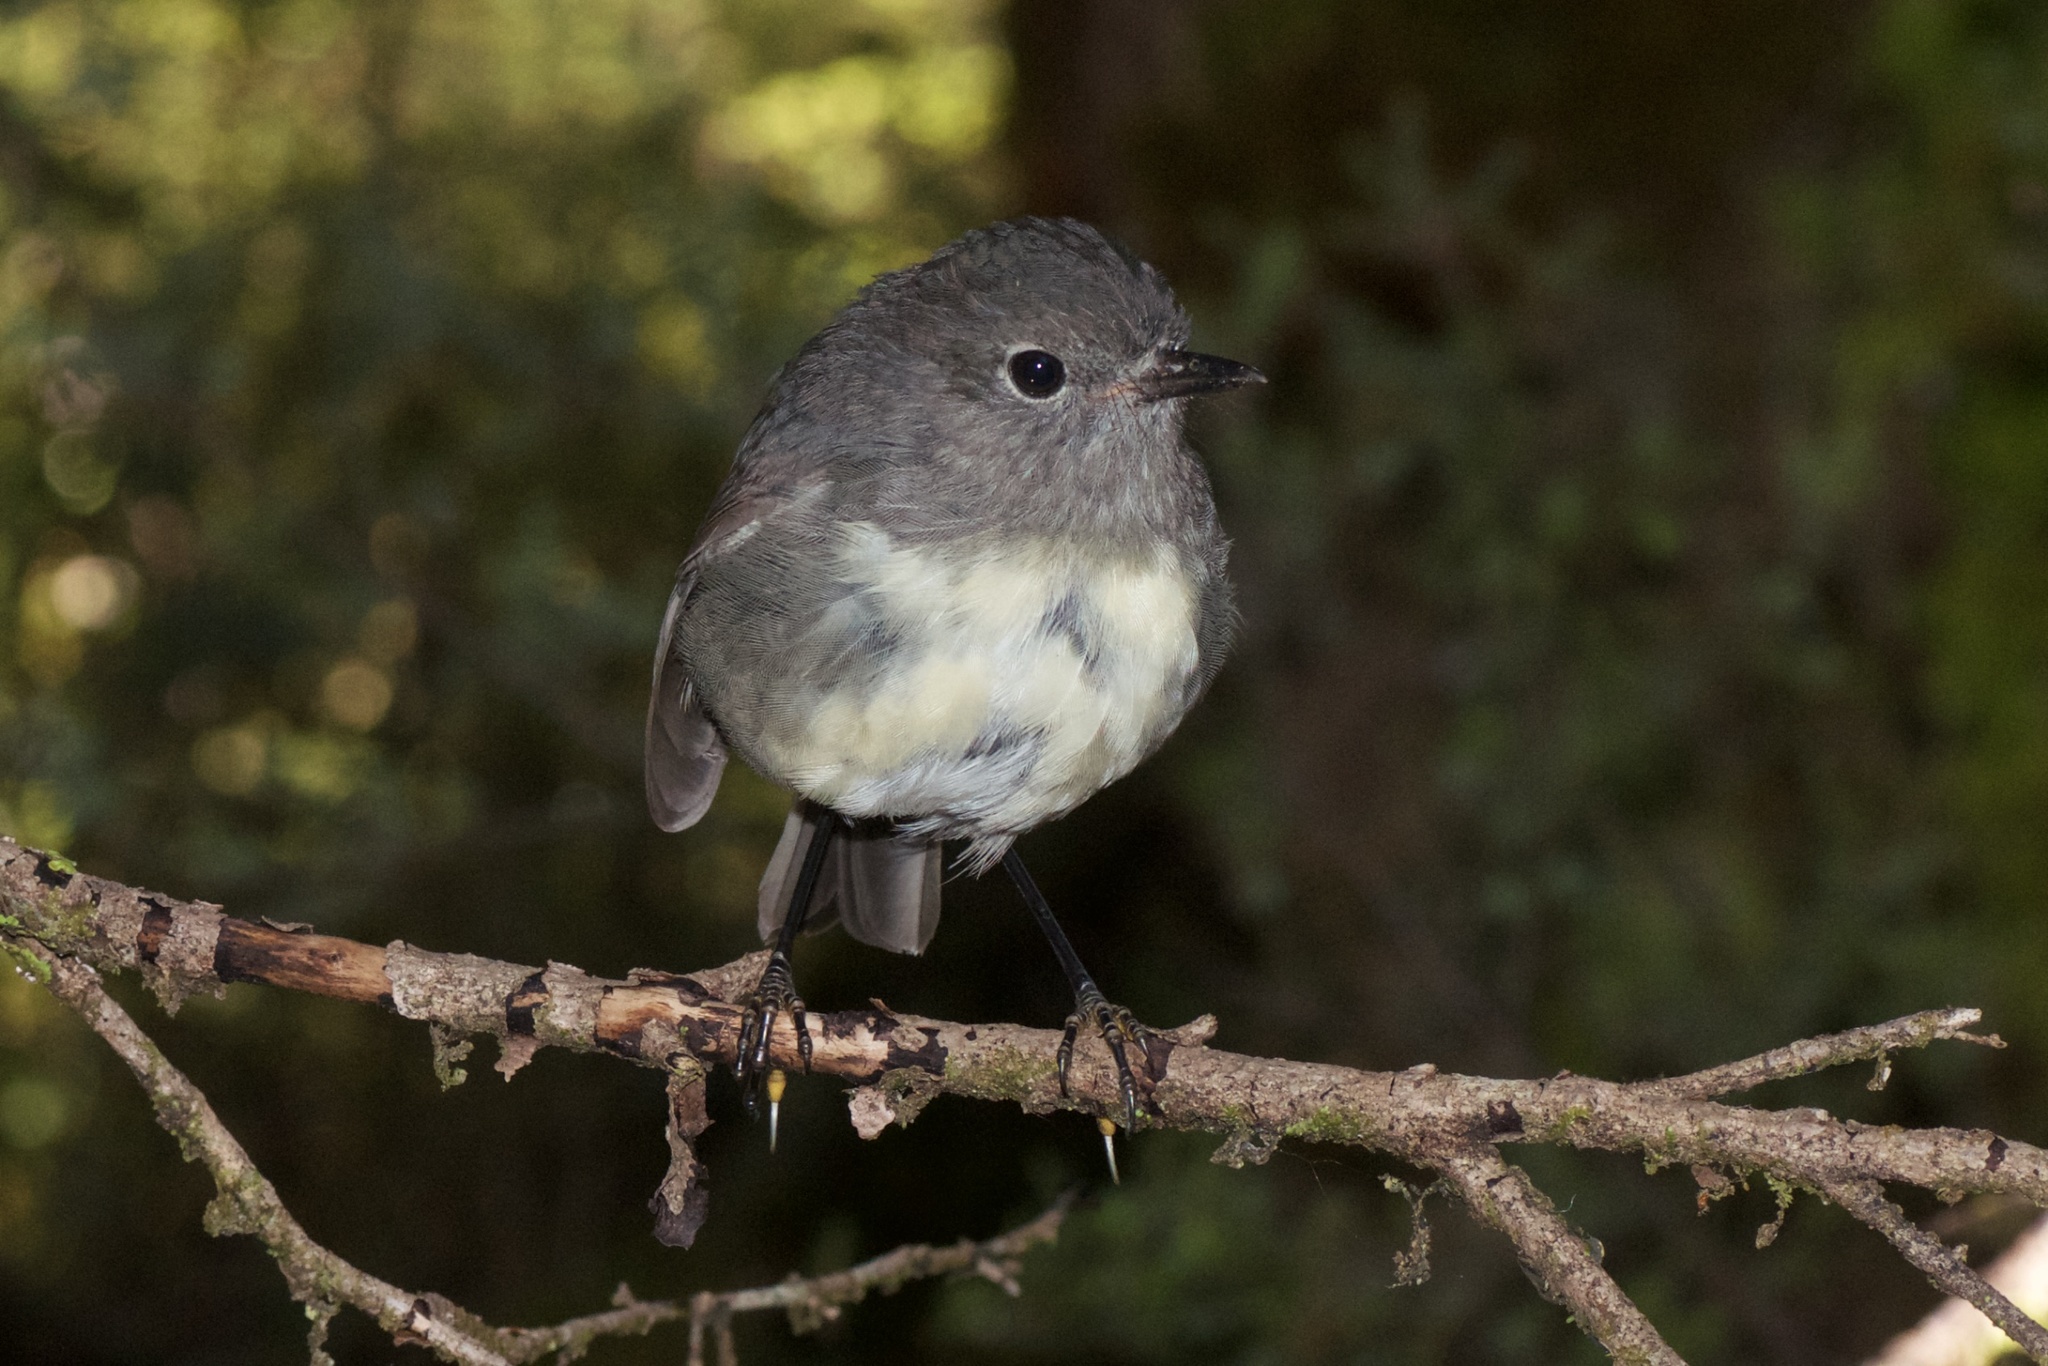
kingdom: Animalia
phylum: Chordata
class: Aves
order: Passeriformes
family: Petroicidae
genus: Petroica
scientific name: Petroica australis
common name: New zealand robin
